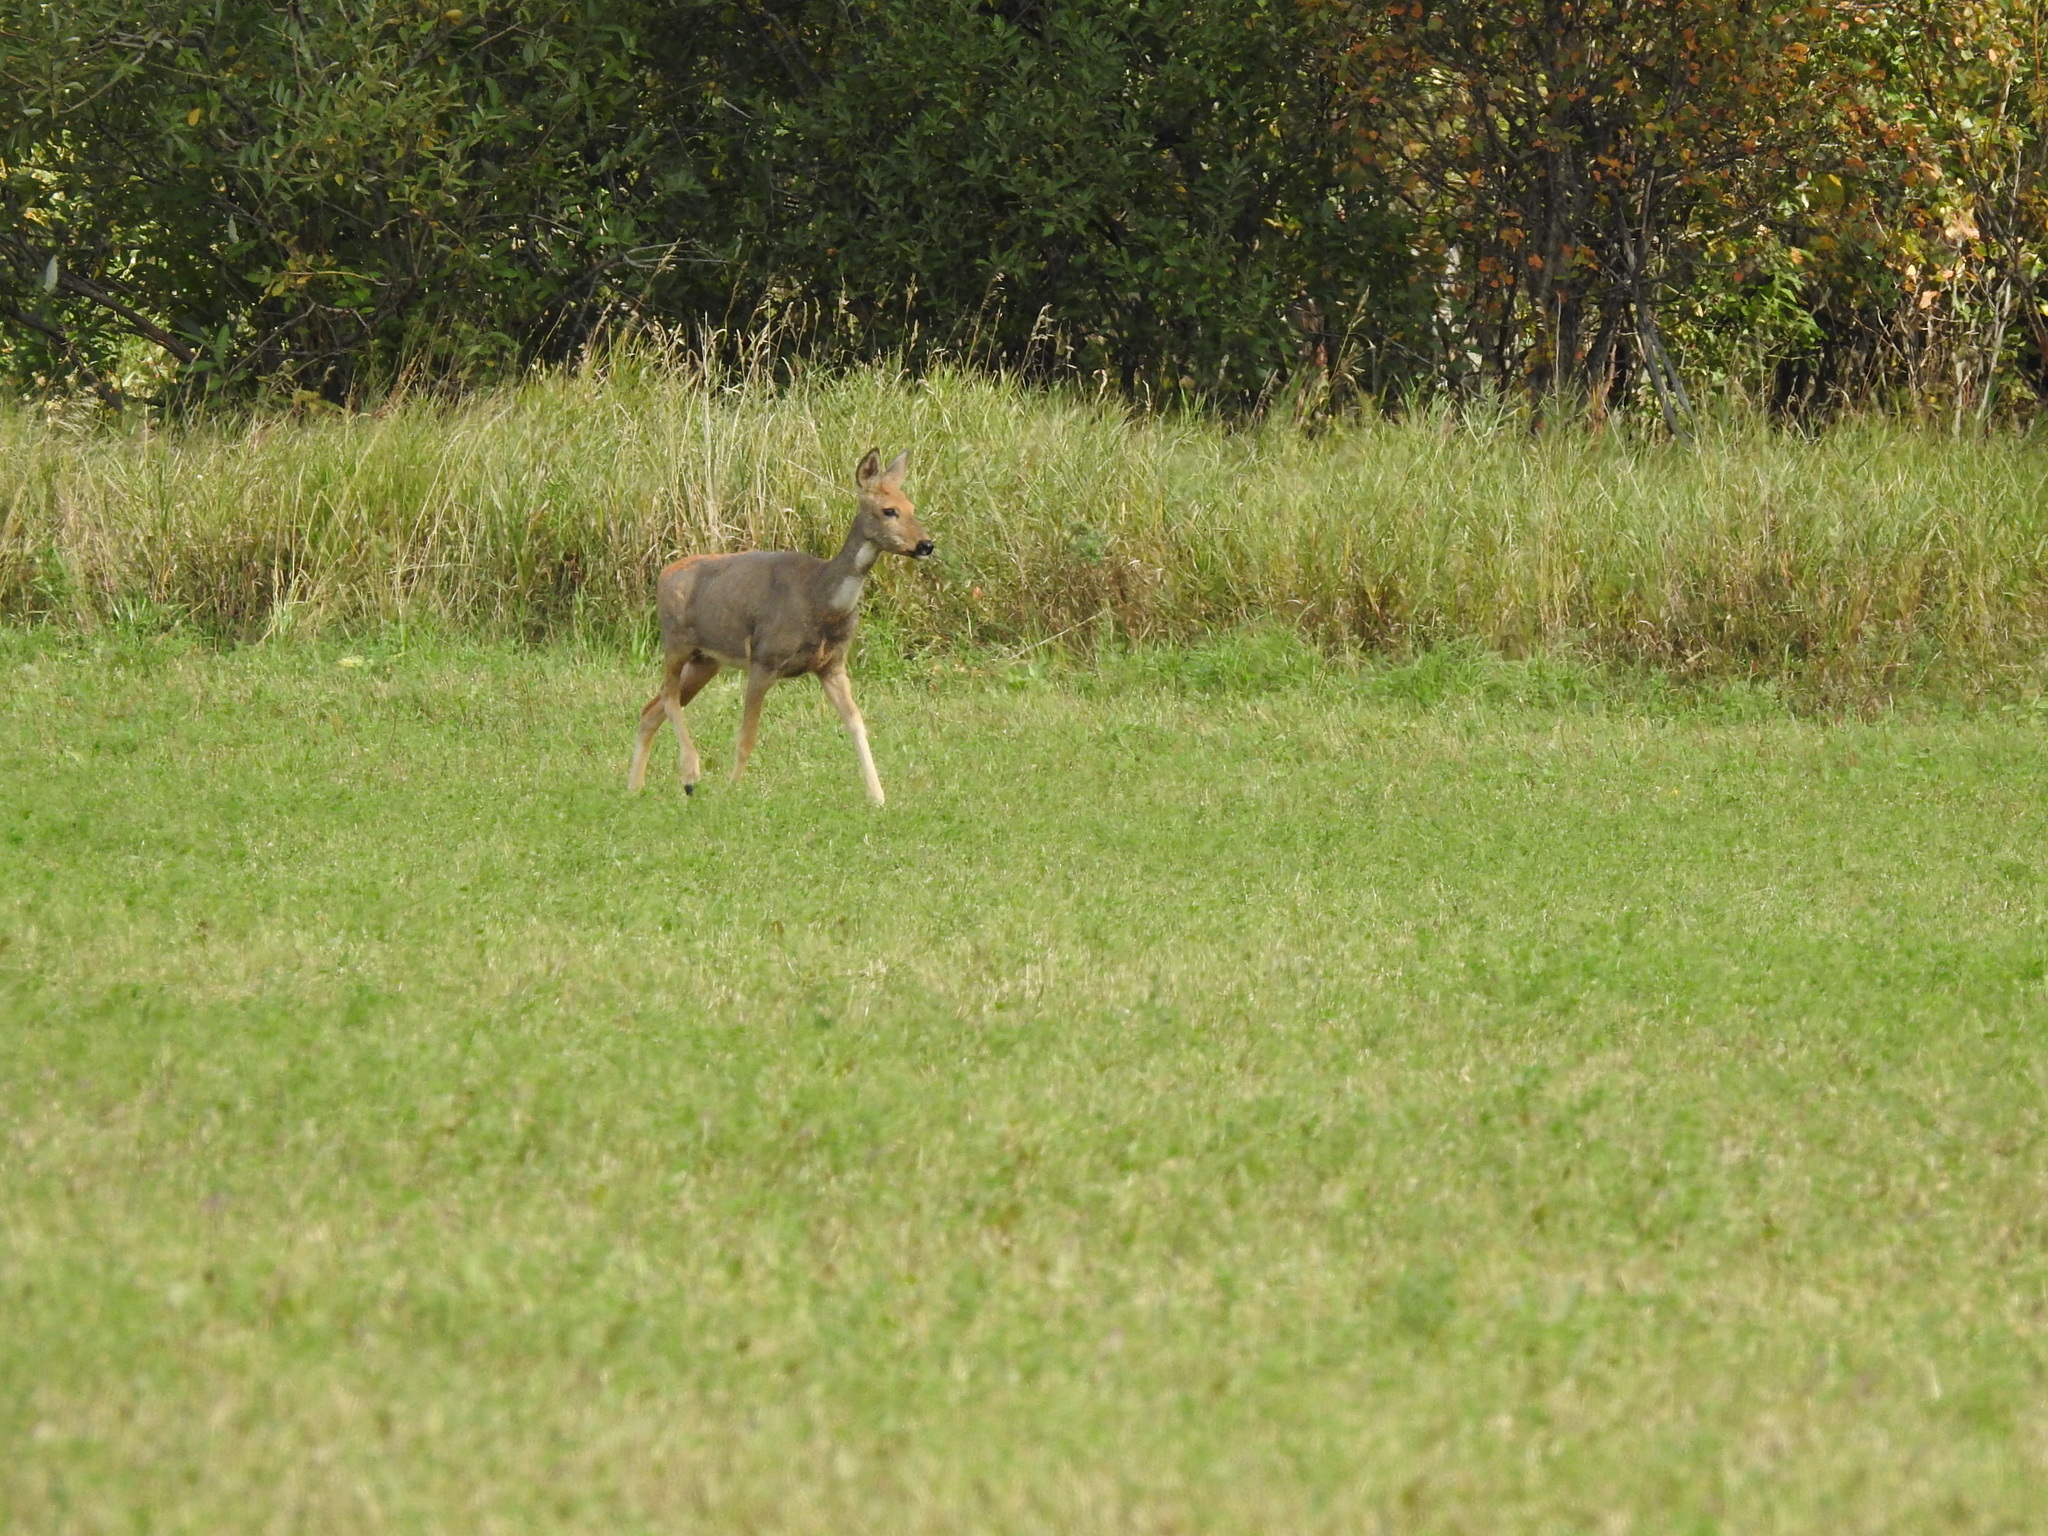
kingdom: Animalia
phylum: Chordata
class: Mammalia
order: Artiodactyla
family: Cervidae
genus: Capreolus
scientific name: Capreolus pygargus
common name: Siberian roe
